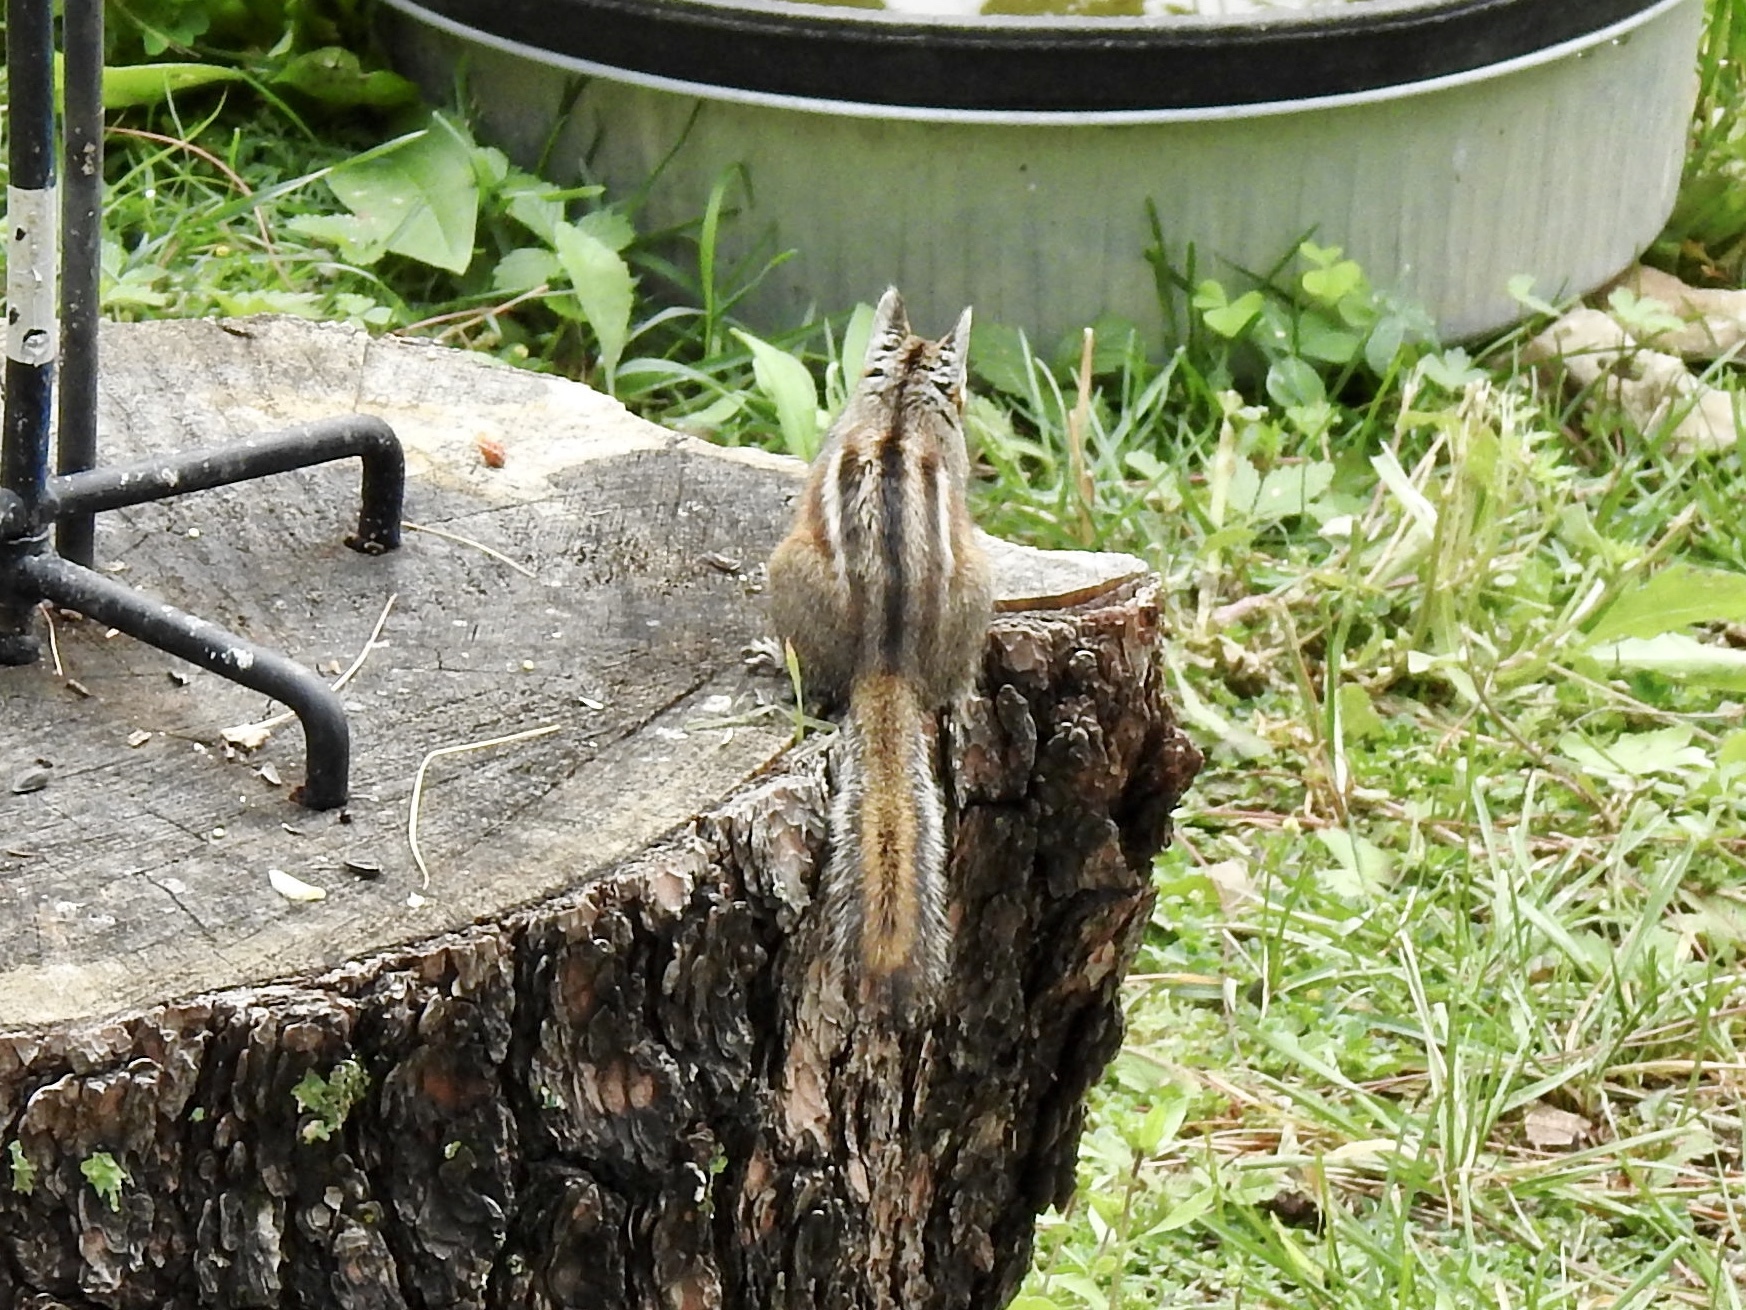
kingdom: Animalia
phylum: Chordata
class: Mammalia
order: Rodentia
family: Sciuridae
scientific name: Sciuridae
